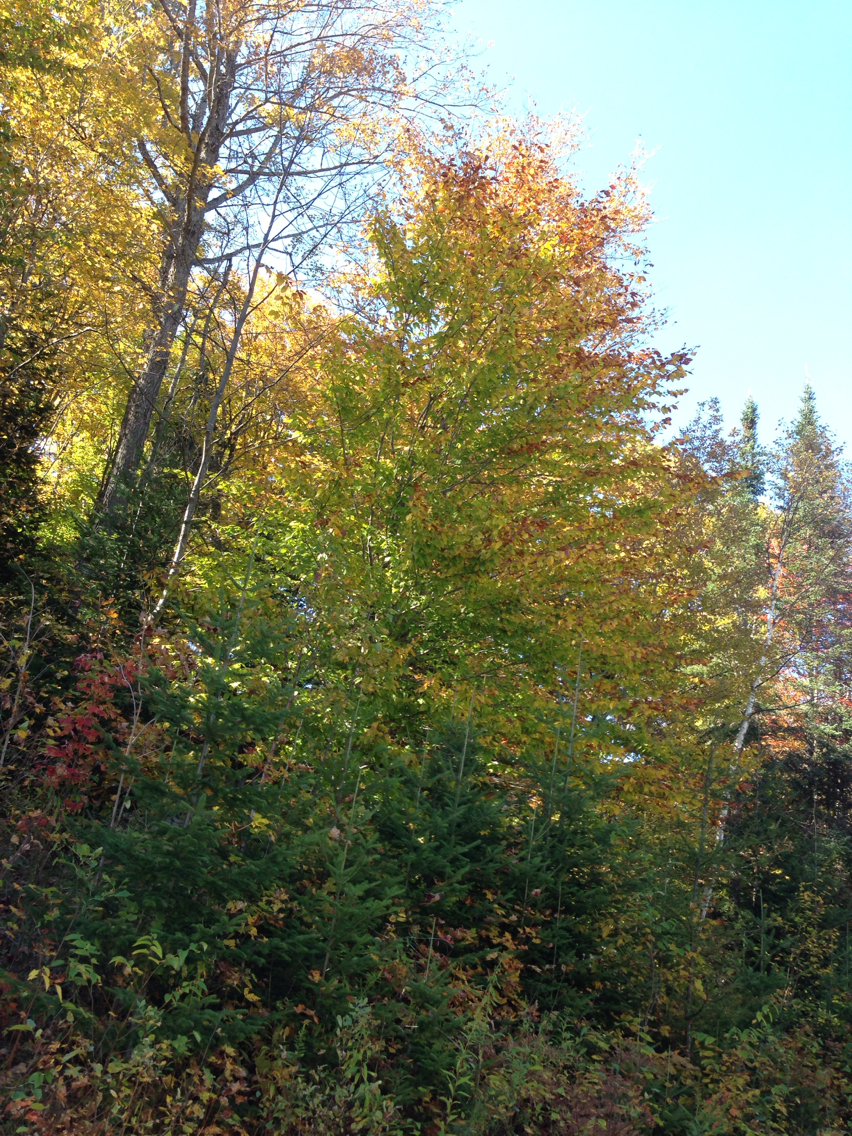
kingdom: Plantae
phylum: Tracheophyta
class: Magnoliopsida
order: Fagales
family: Fagaceae
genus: Fagus
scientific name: Fagus grandifolia
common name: American beech
